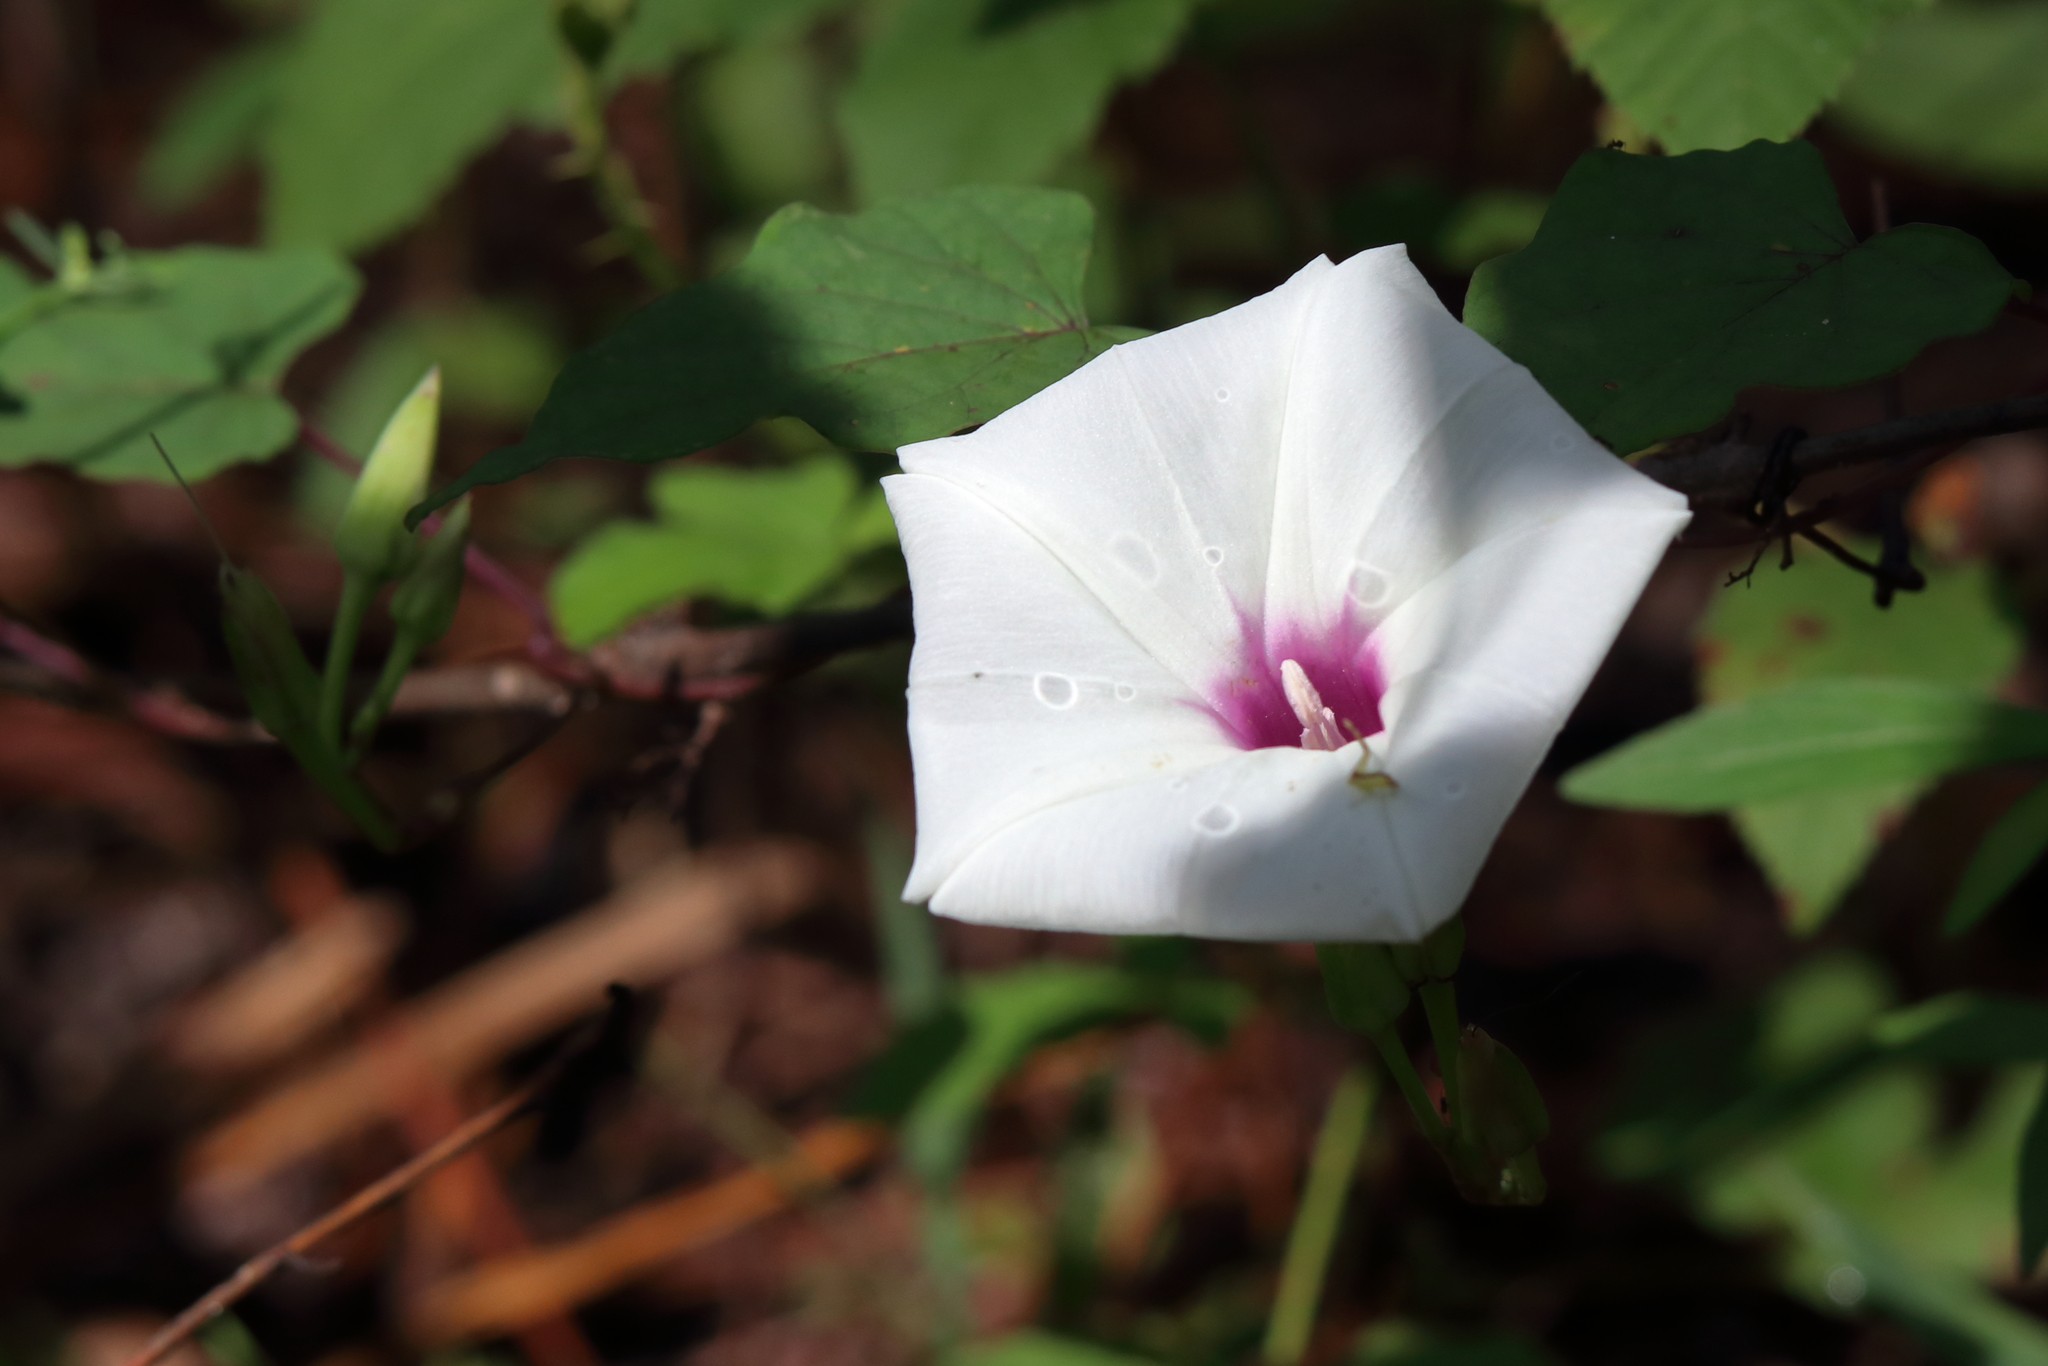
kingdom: Plantae
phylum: Tracheophyta
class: Magnoliopsida
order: Solanales
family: Convolvulaceae
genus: Ipomoea
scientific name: Ipomoea pandurata
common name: Man-of-the-earth
